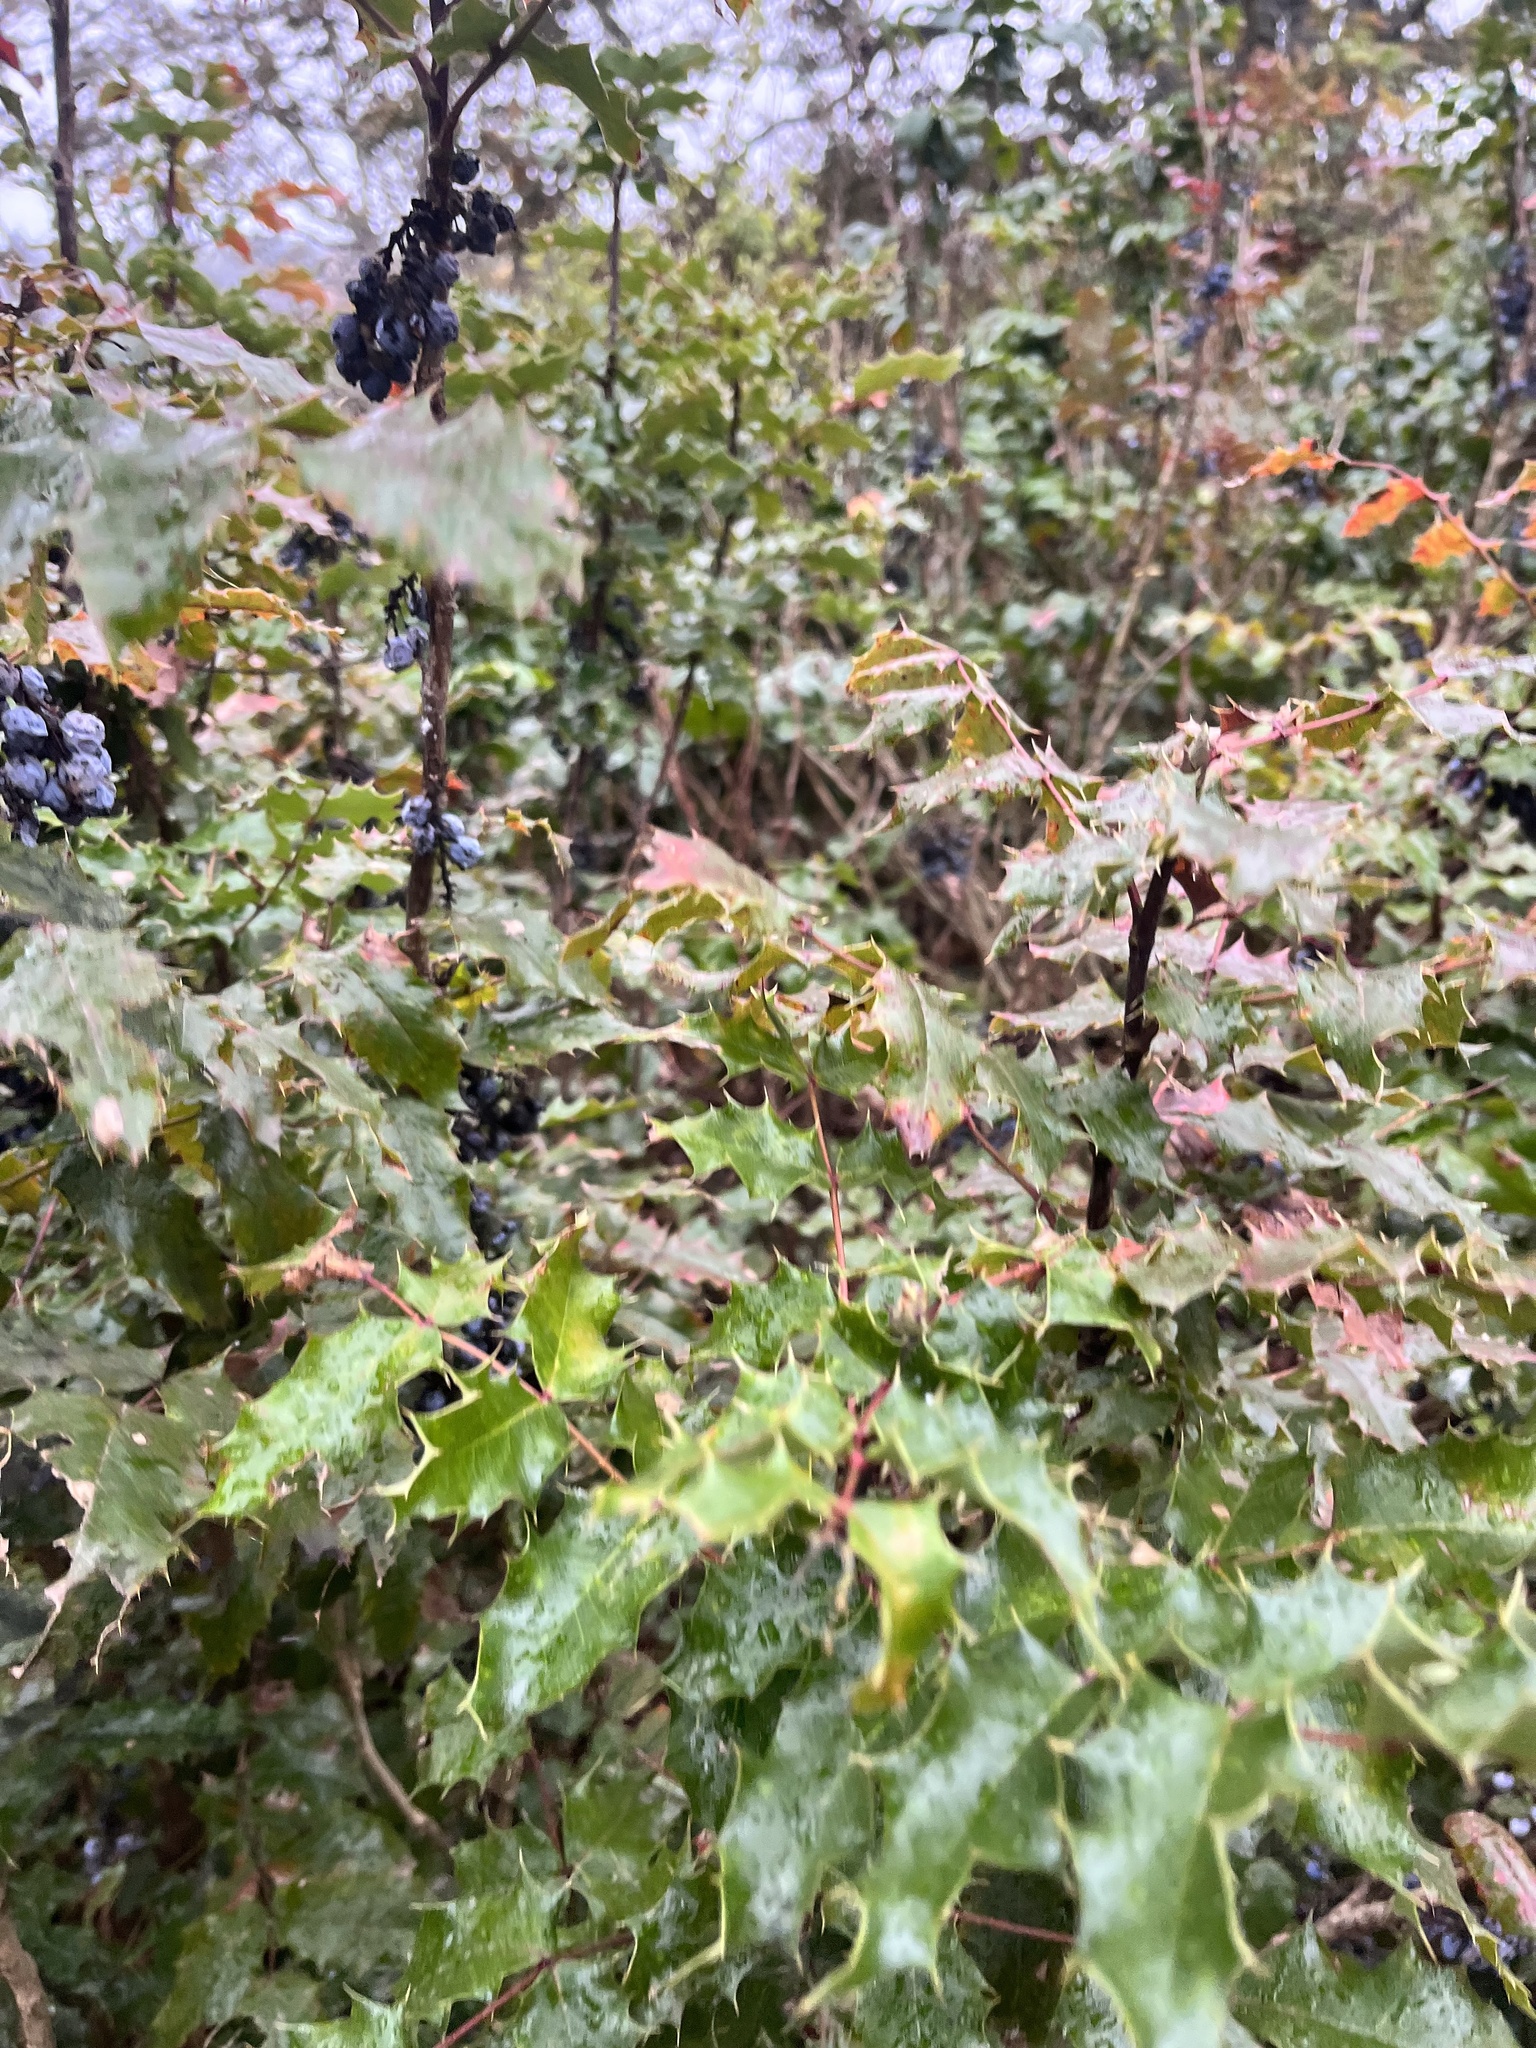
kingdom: Plantae
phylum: Tracheophyta
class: Magnoliopsida
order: Ranunculales
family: Berberidaceae
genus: Mahonia
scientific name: Mahonia aquifolium
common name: Oregon-grape
